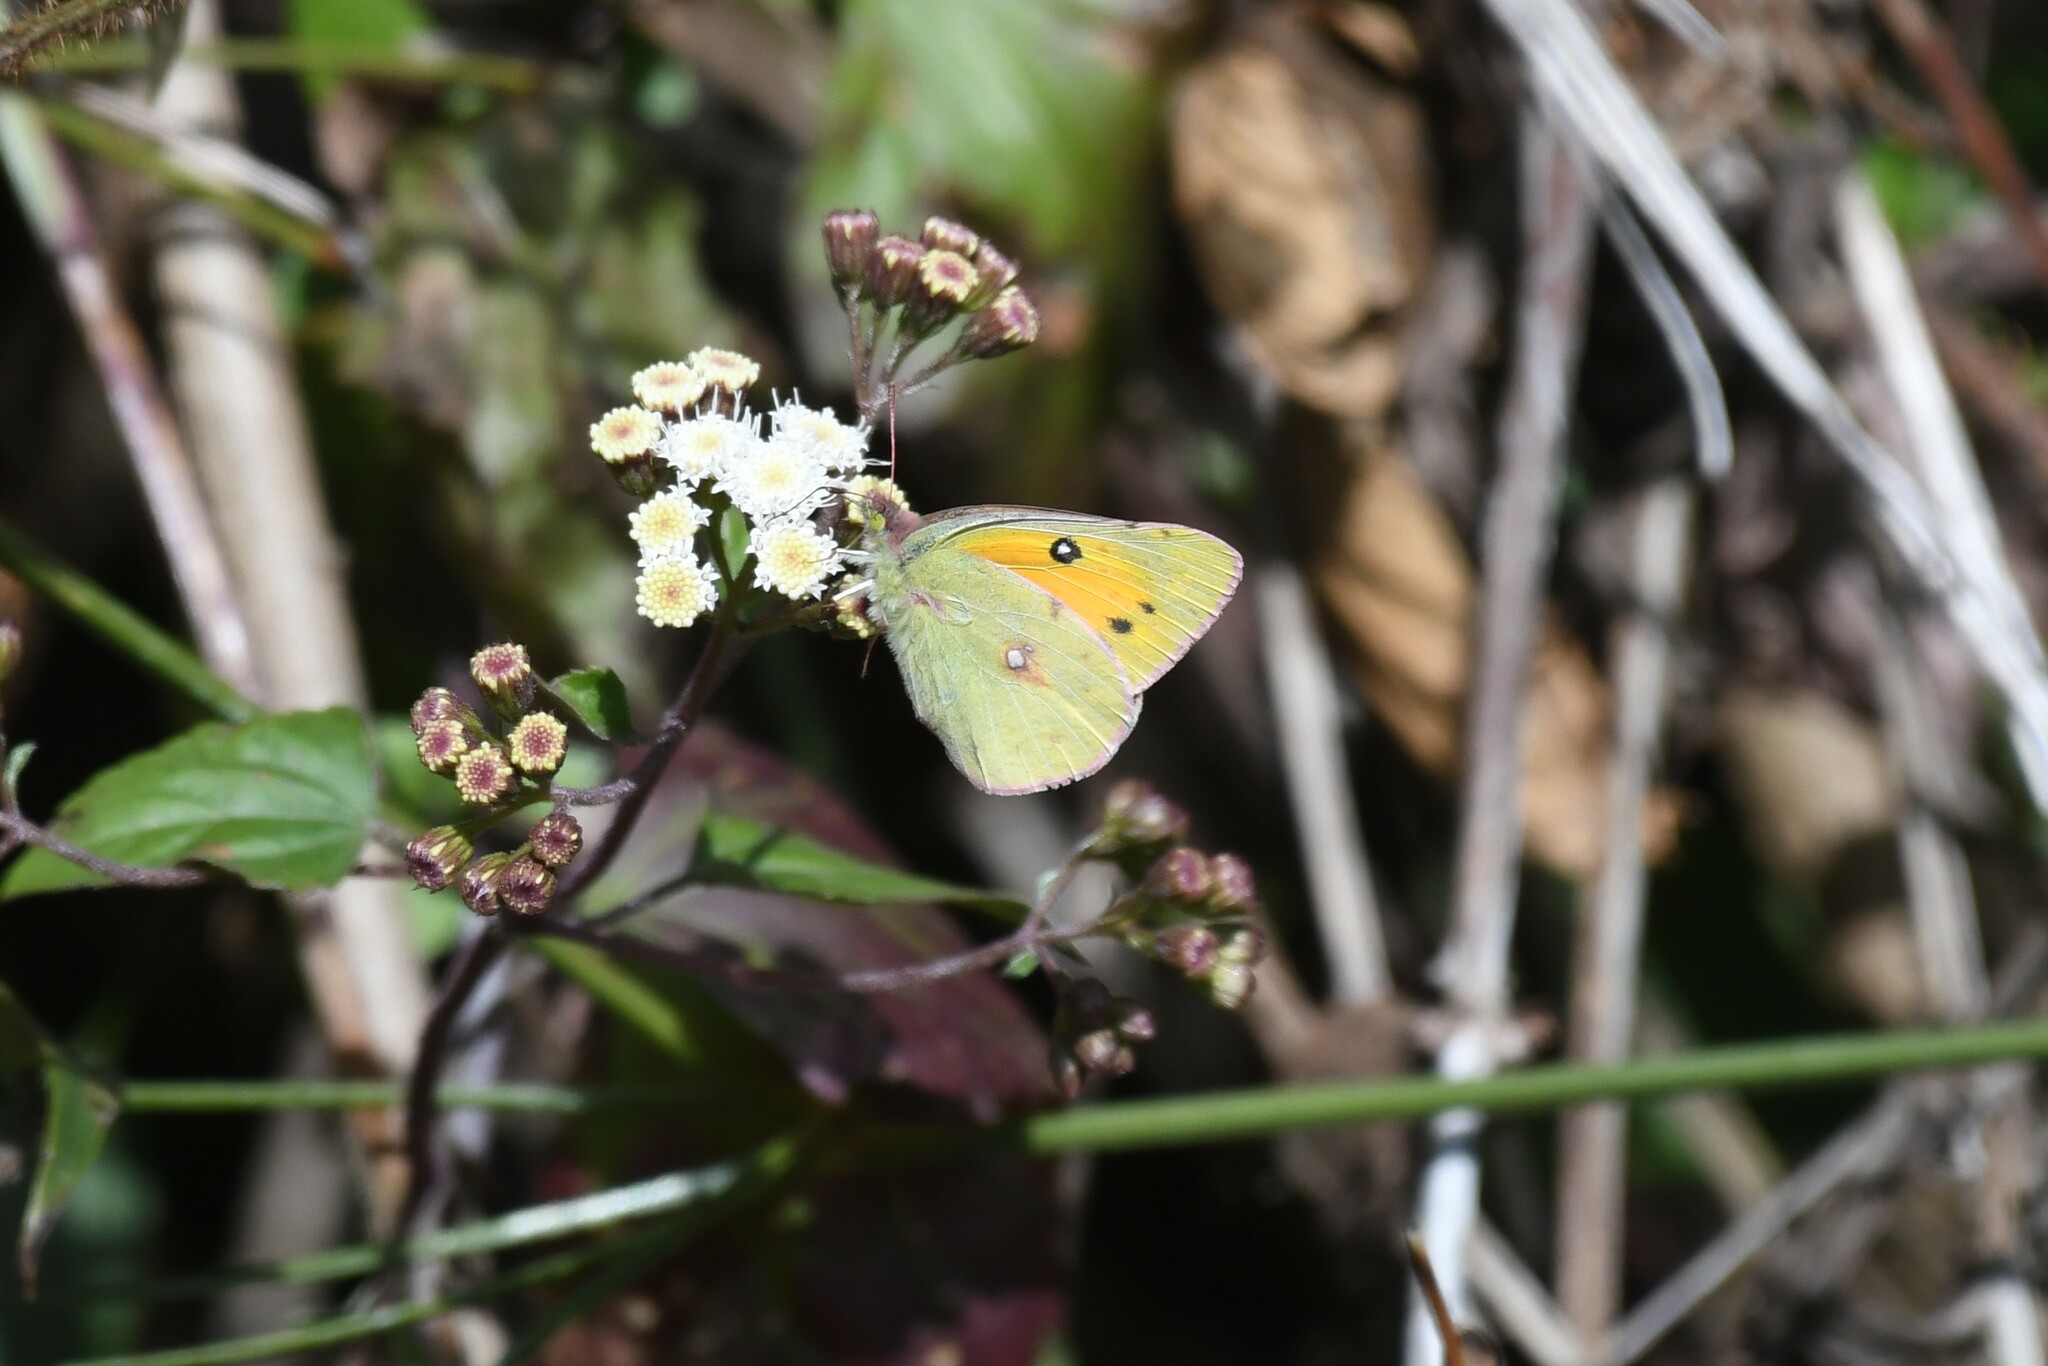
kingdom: Animalia
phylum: Arthropoda
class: Insecta
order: Lepidoptera
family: Pieridae
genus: Colias
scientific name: Colias fieldii
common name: Dark clouded yellow
